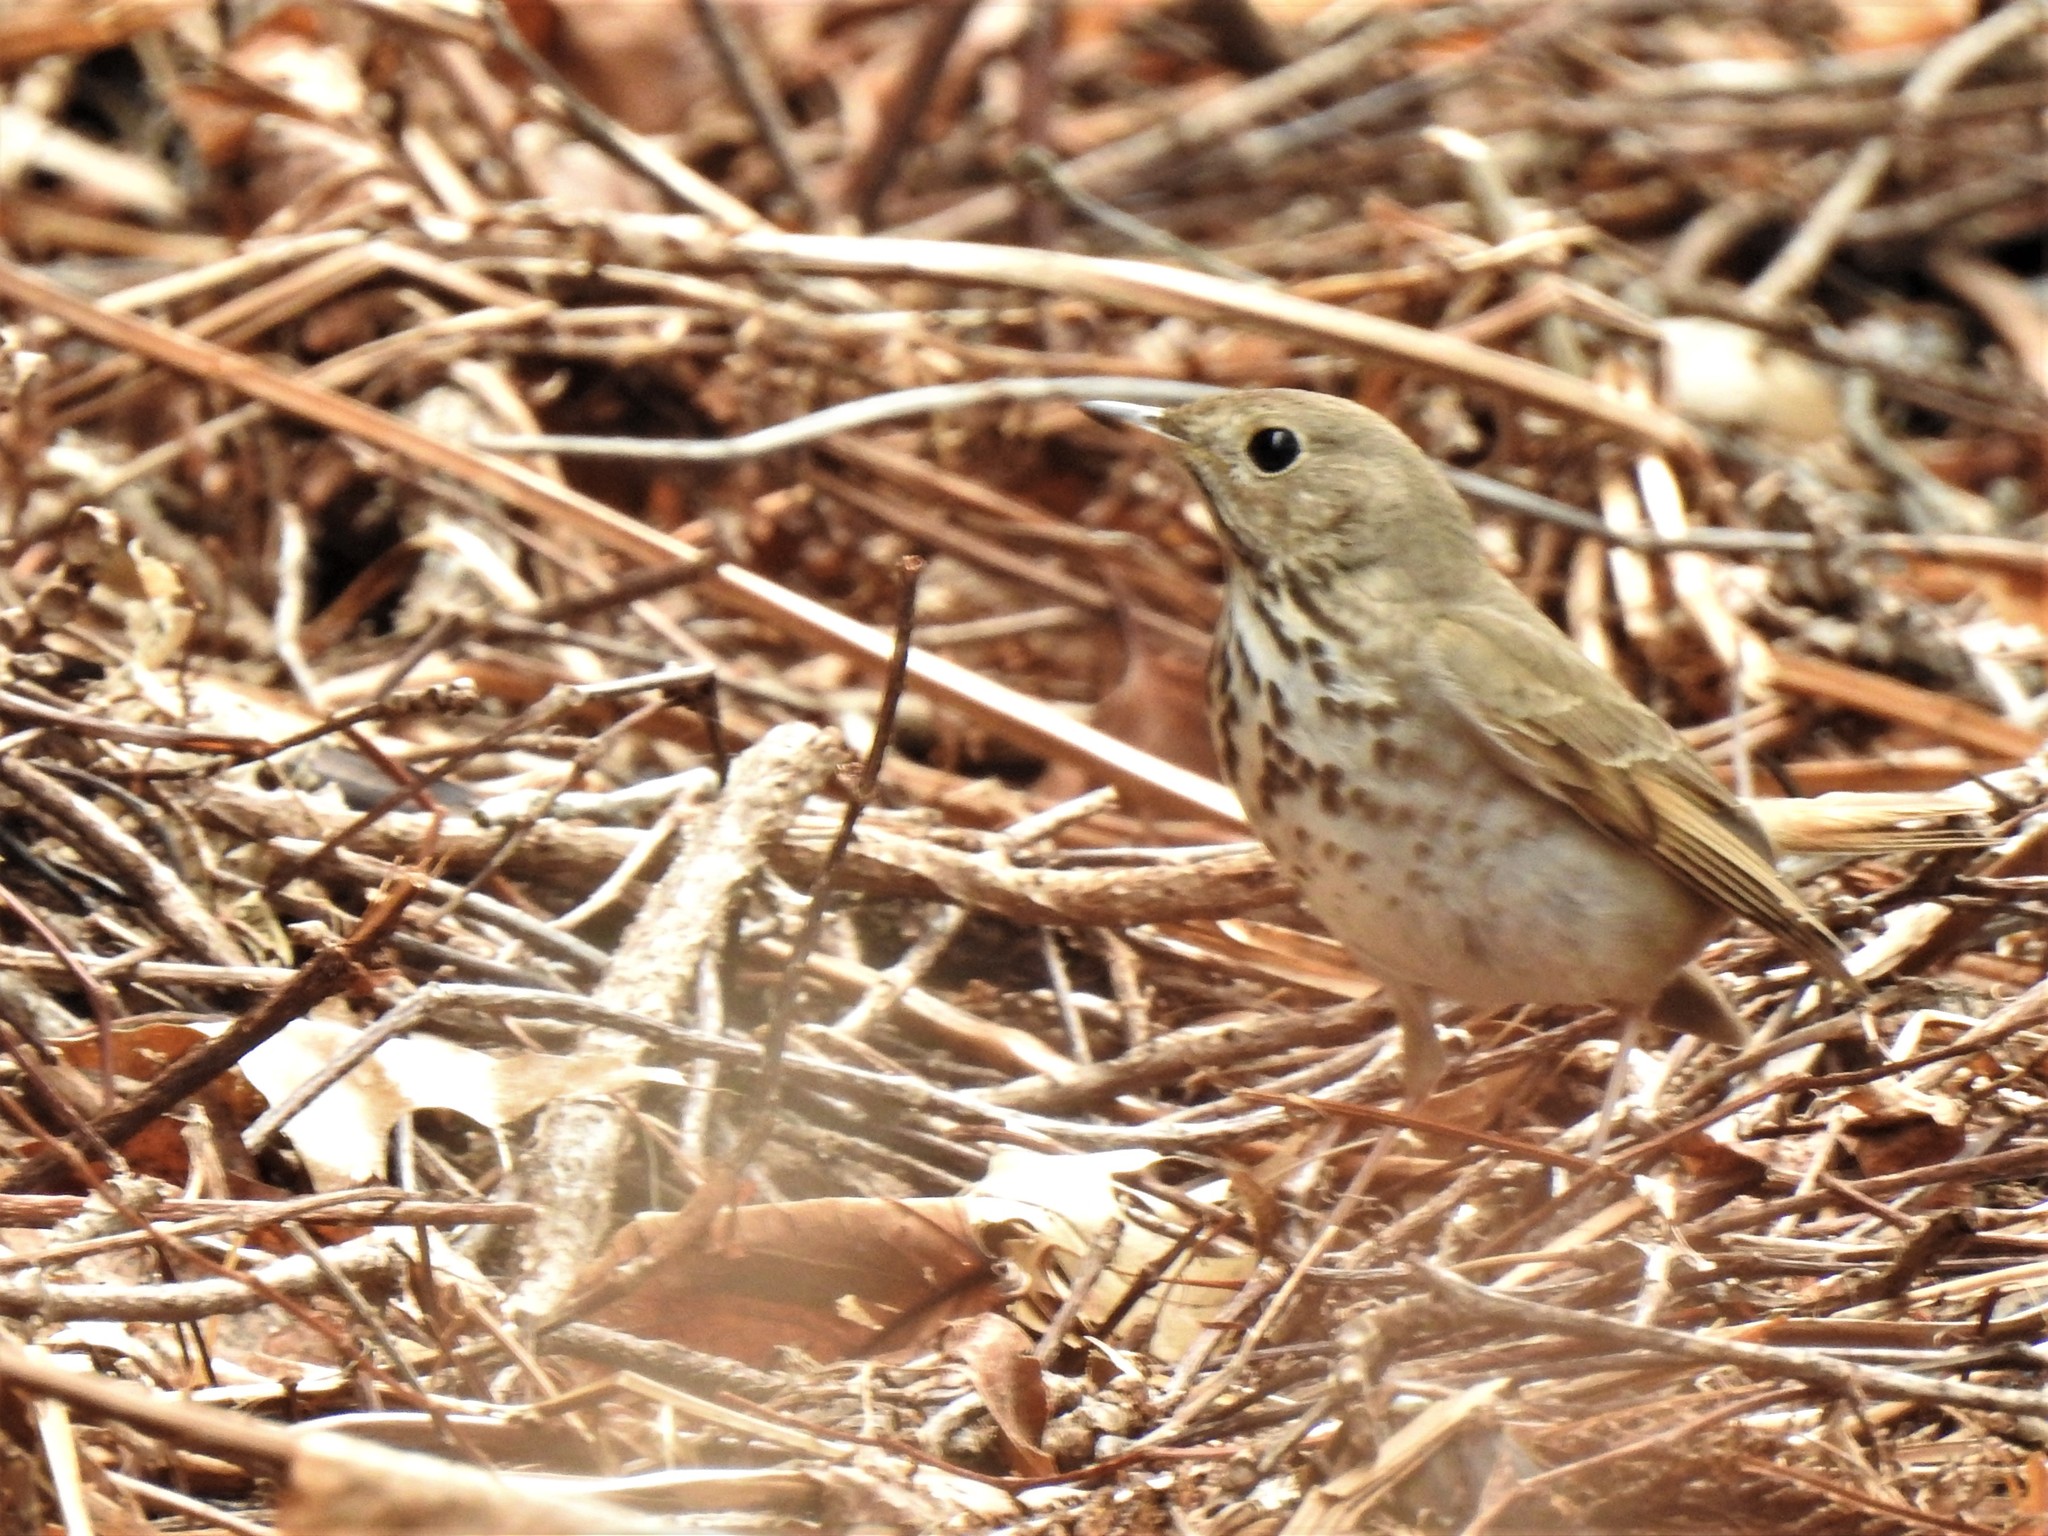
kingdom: Animalia
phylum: Chordata
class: Aves
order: Passeriformes
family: Turdidae
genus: Catharus
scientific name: Catharus guttatus
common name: Hermit thrush
